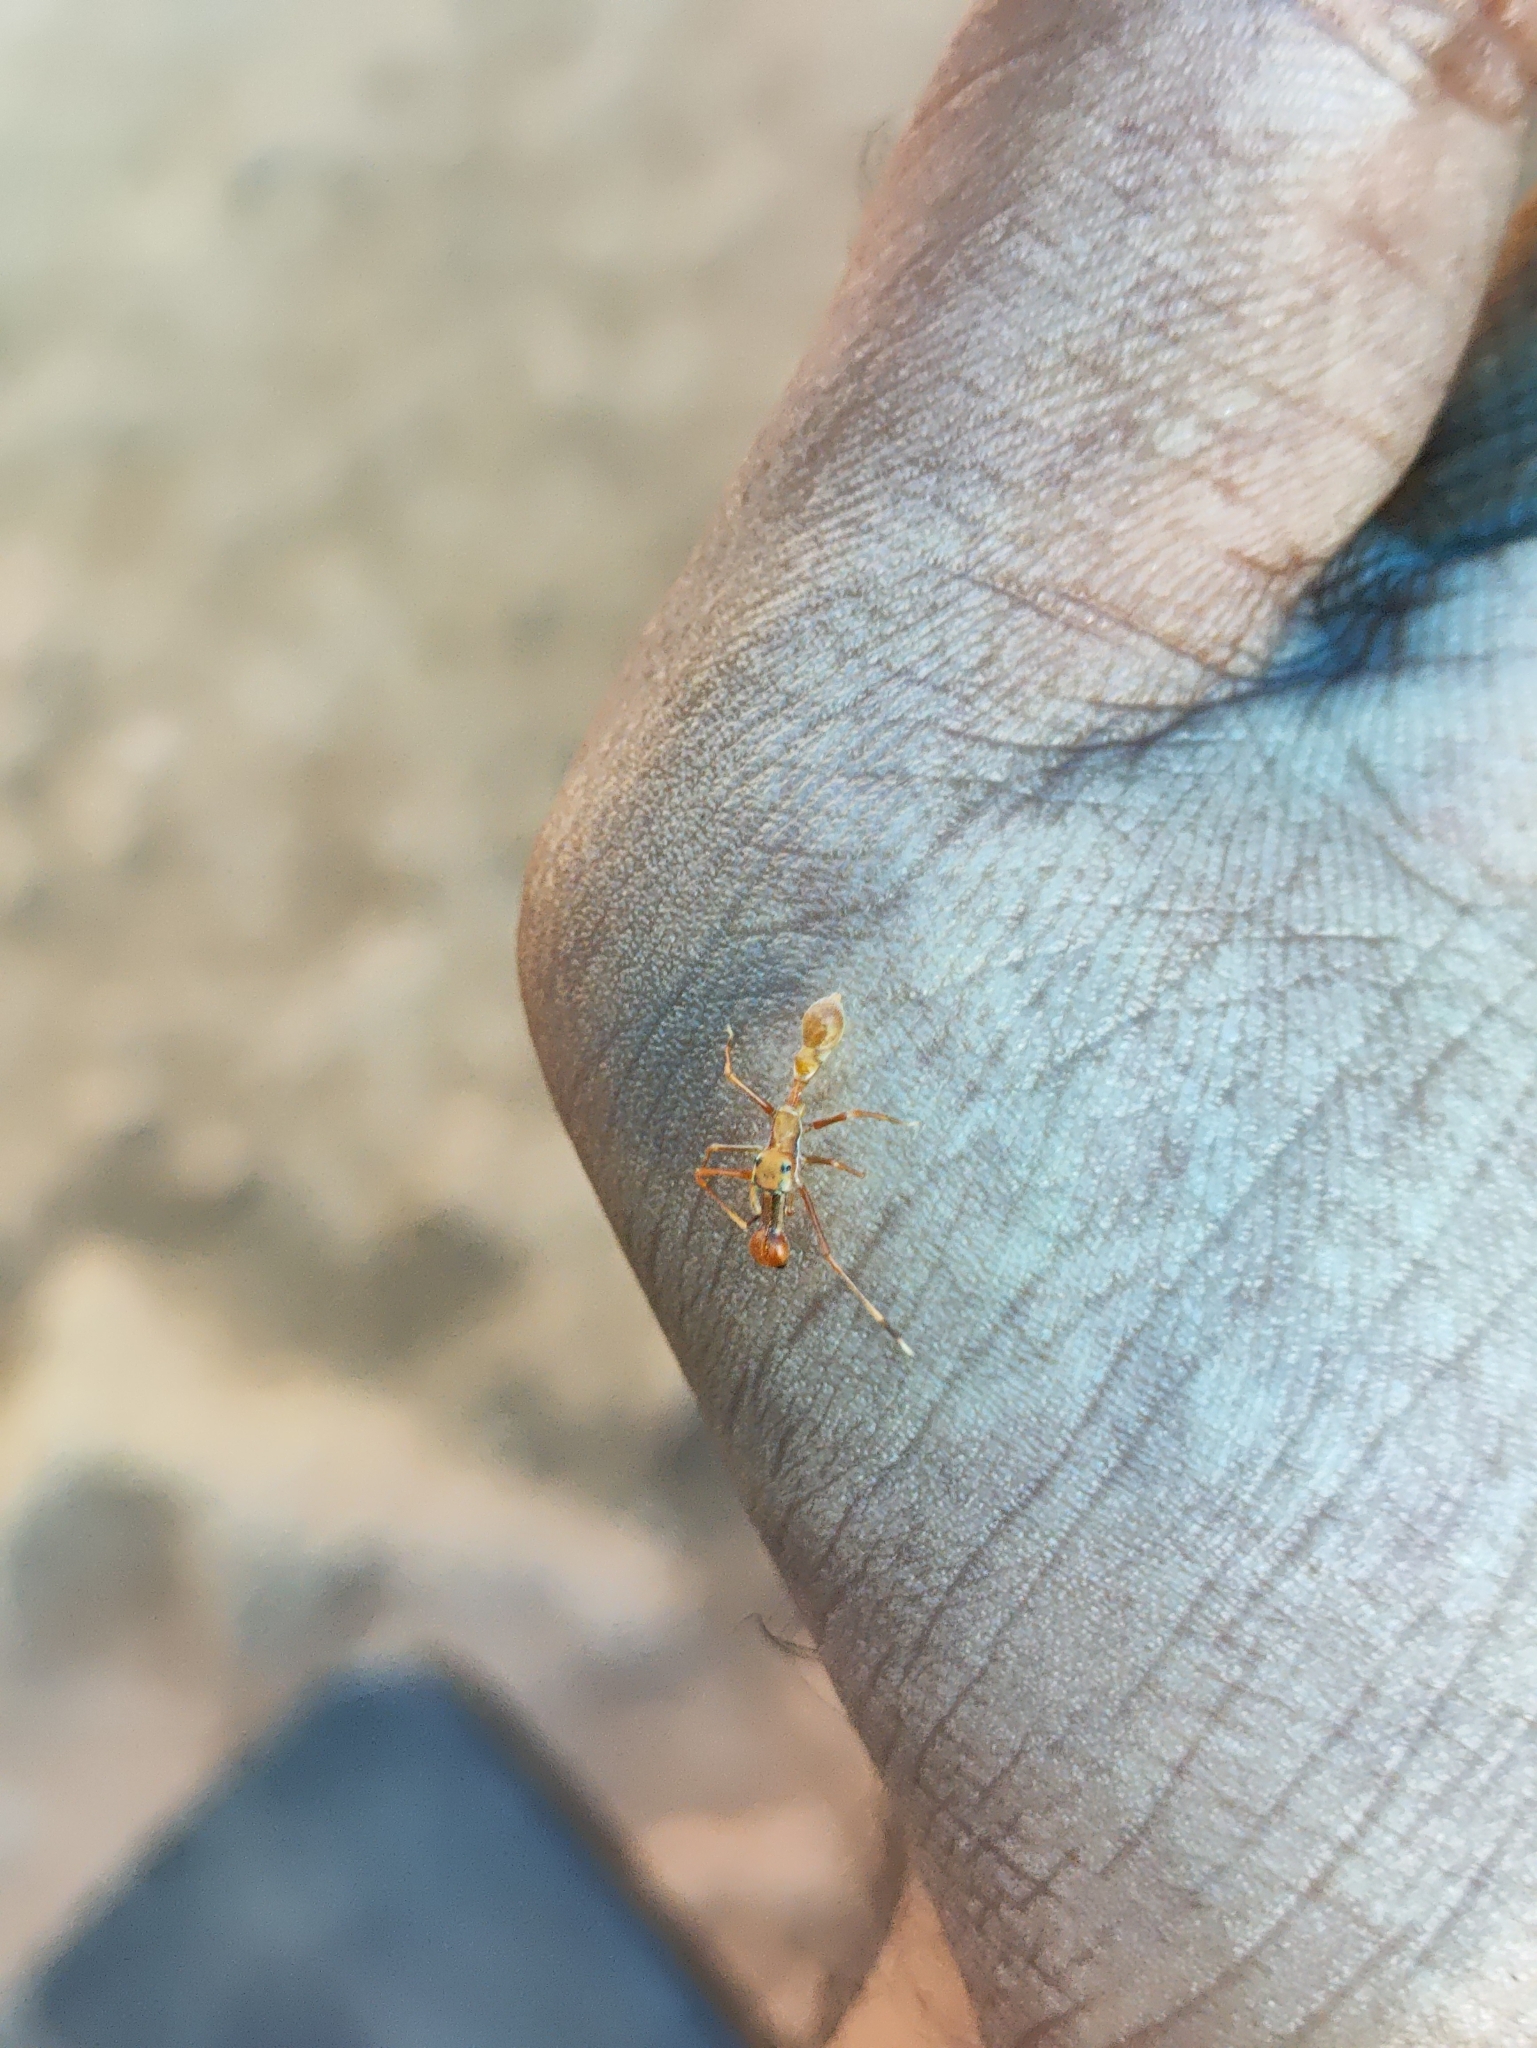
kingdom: Animalia
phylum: Arthropoda
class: Arachnida
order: Araneae
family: Salticidae
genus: Myrmaplata
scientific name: Myrmaplata plataleoides
